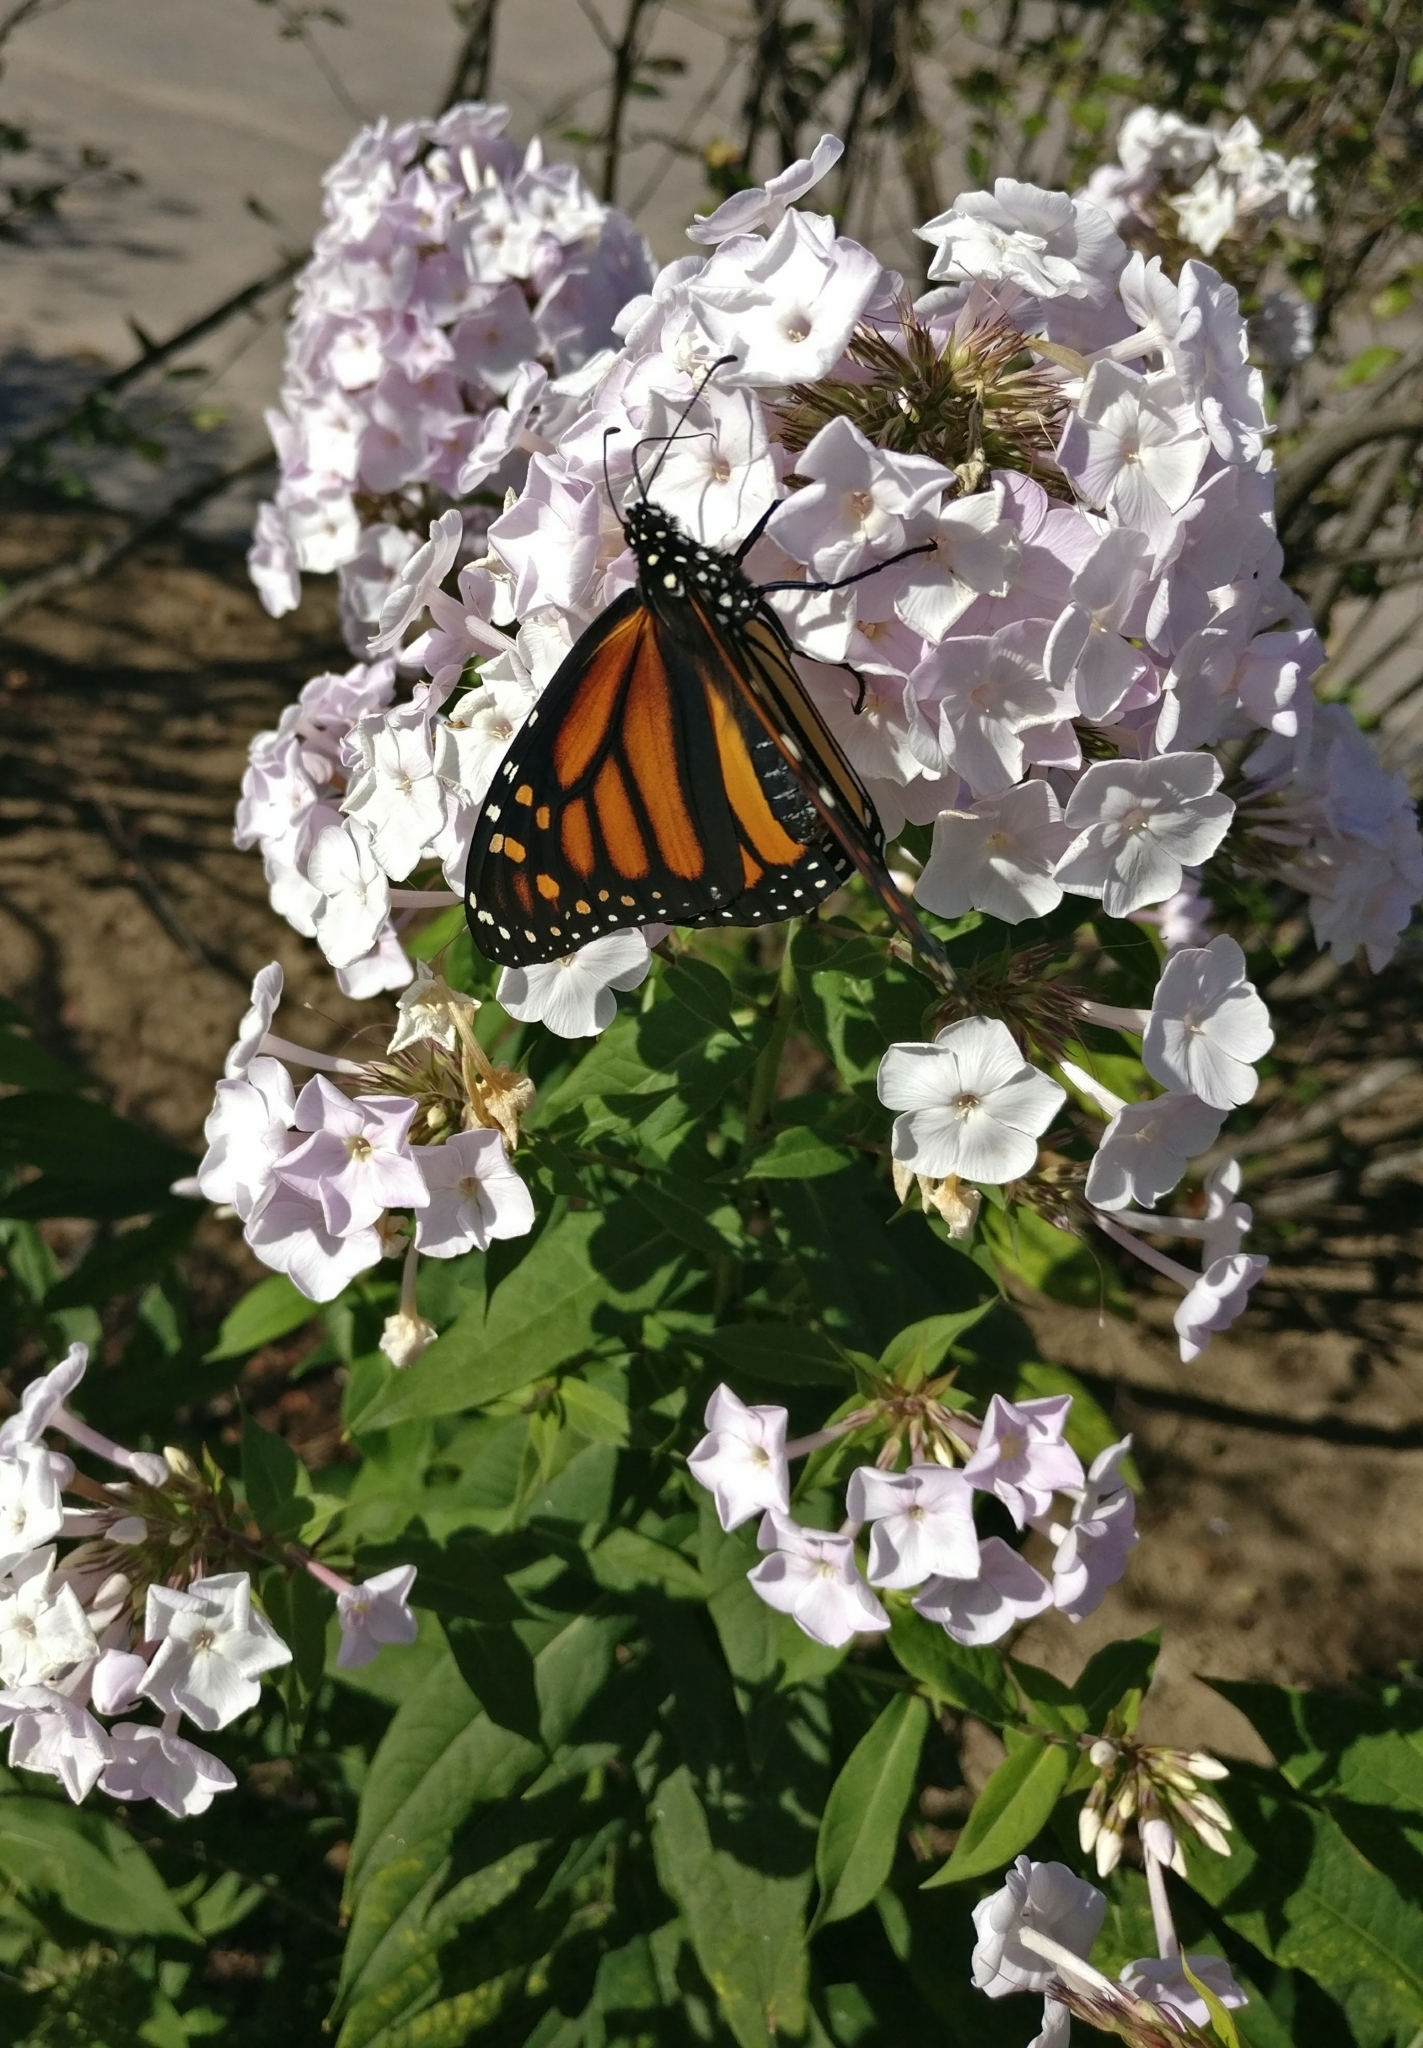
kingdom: Animalia
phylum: Arthropoda
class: Insecta
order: Lepidoptera
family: Nymphalidae
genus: Danaus
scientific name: Danaus plexippus
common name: Monarch
